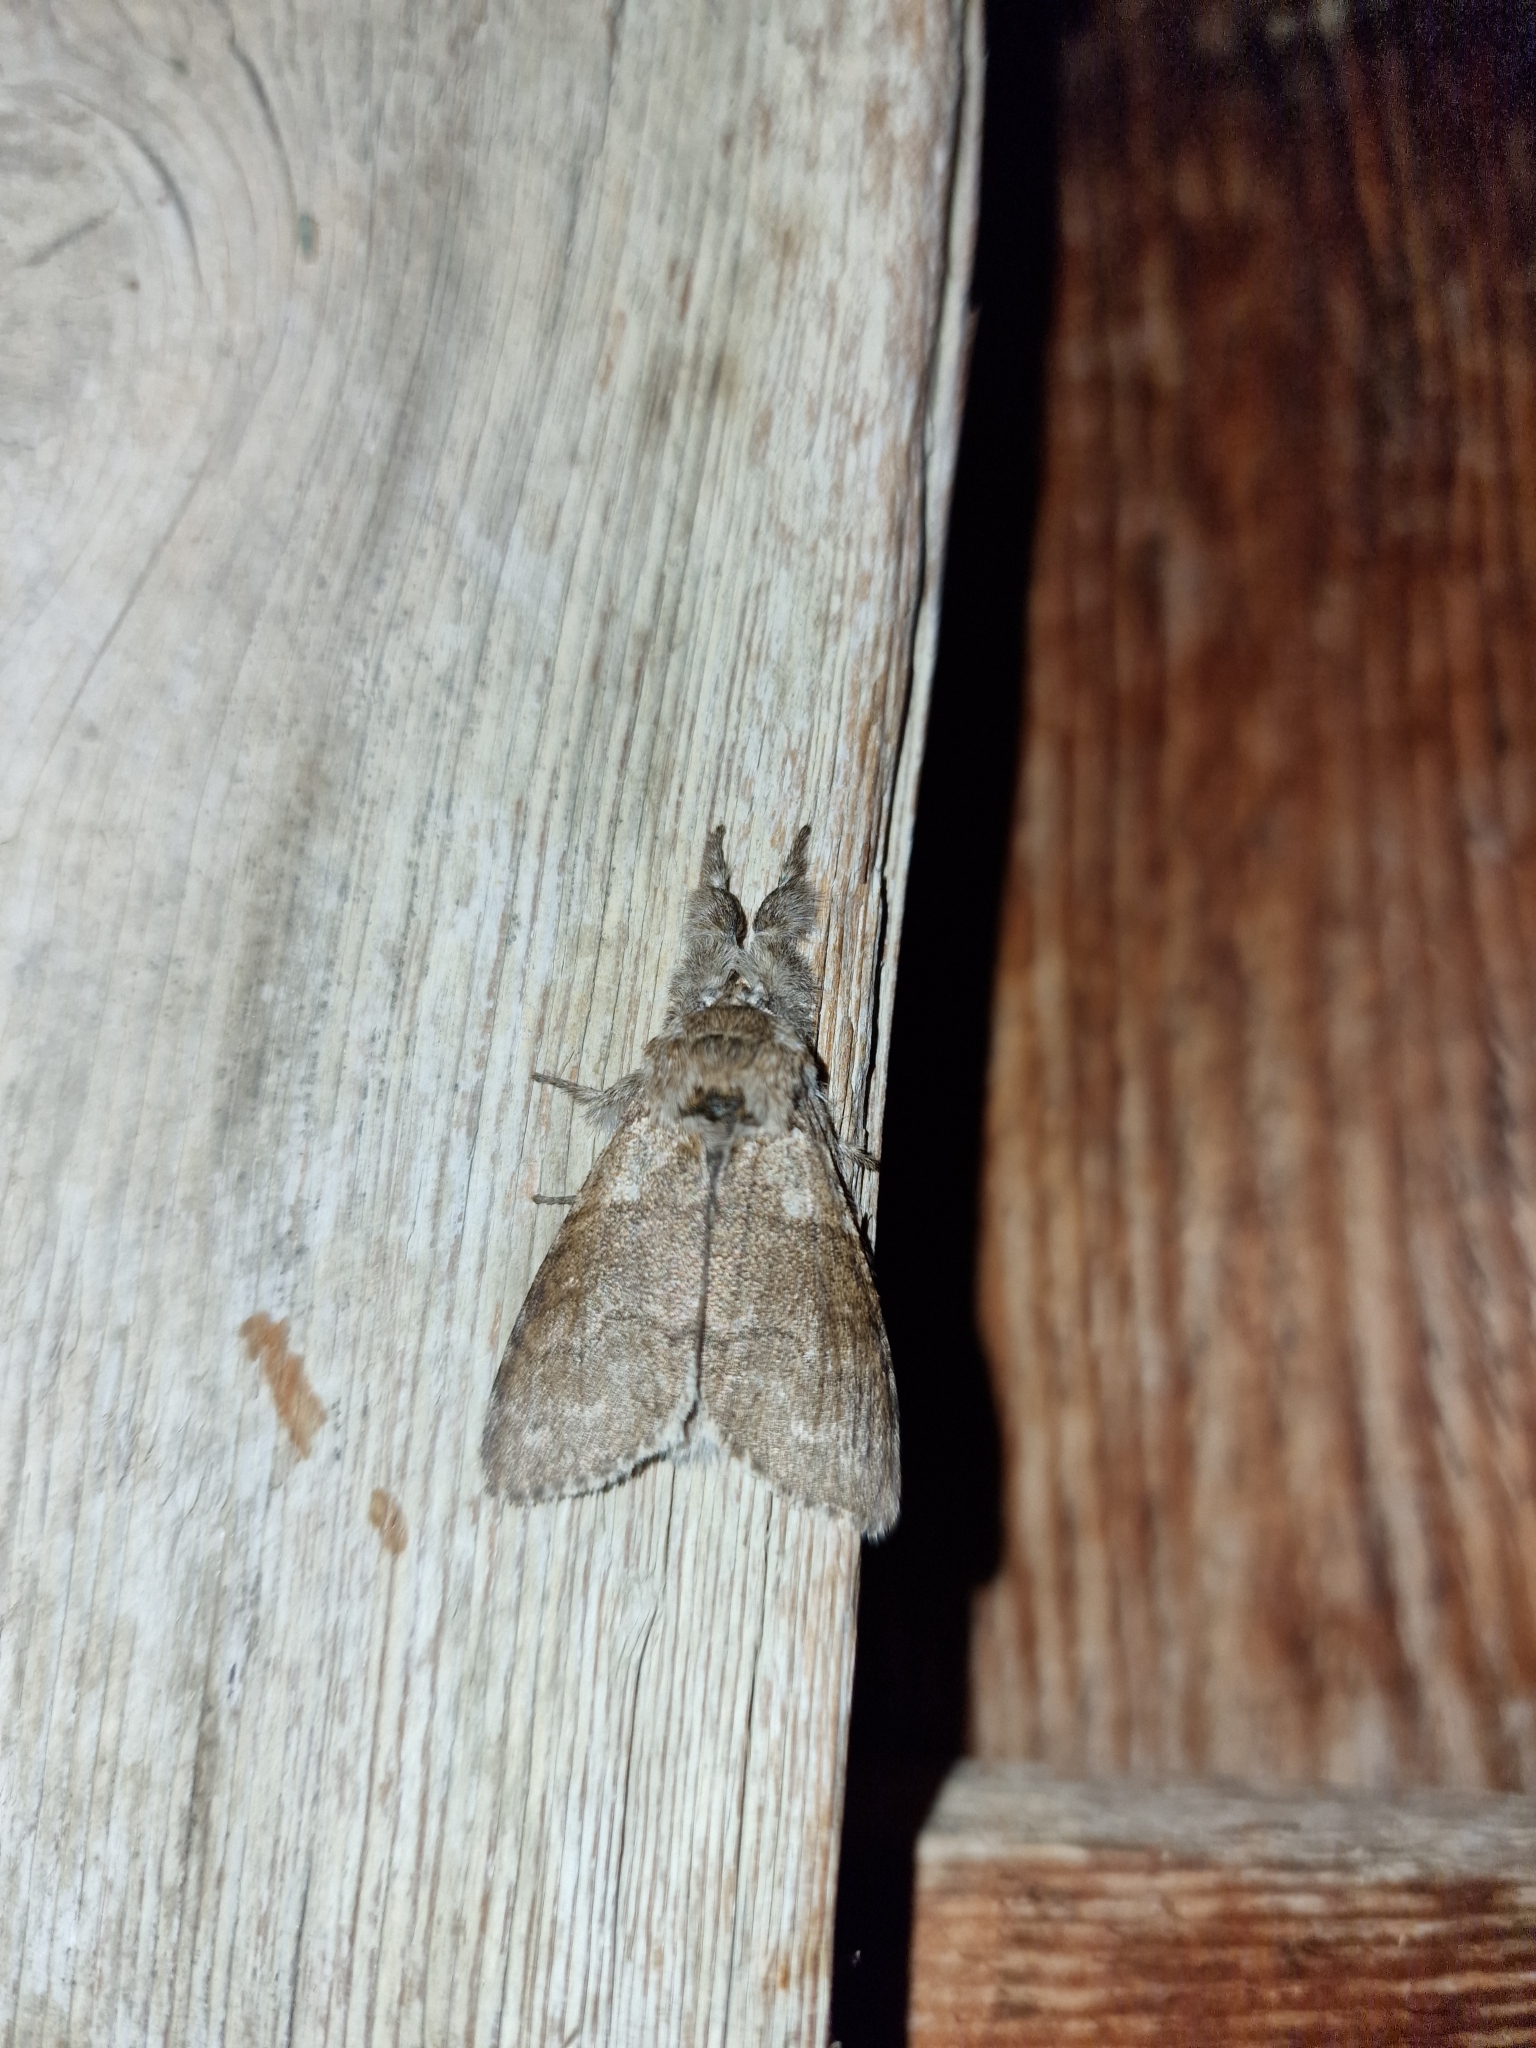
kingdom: Animalia
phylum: Arthropoda
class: Insecta
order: Lepidoptera
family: Erebidae
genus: Calliteara
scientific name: Calliteara pudibunda
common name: Pale tussock
